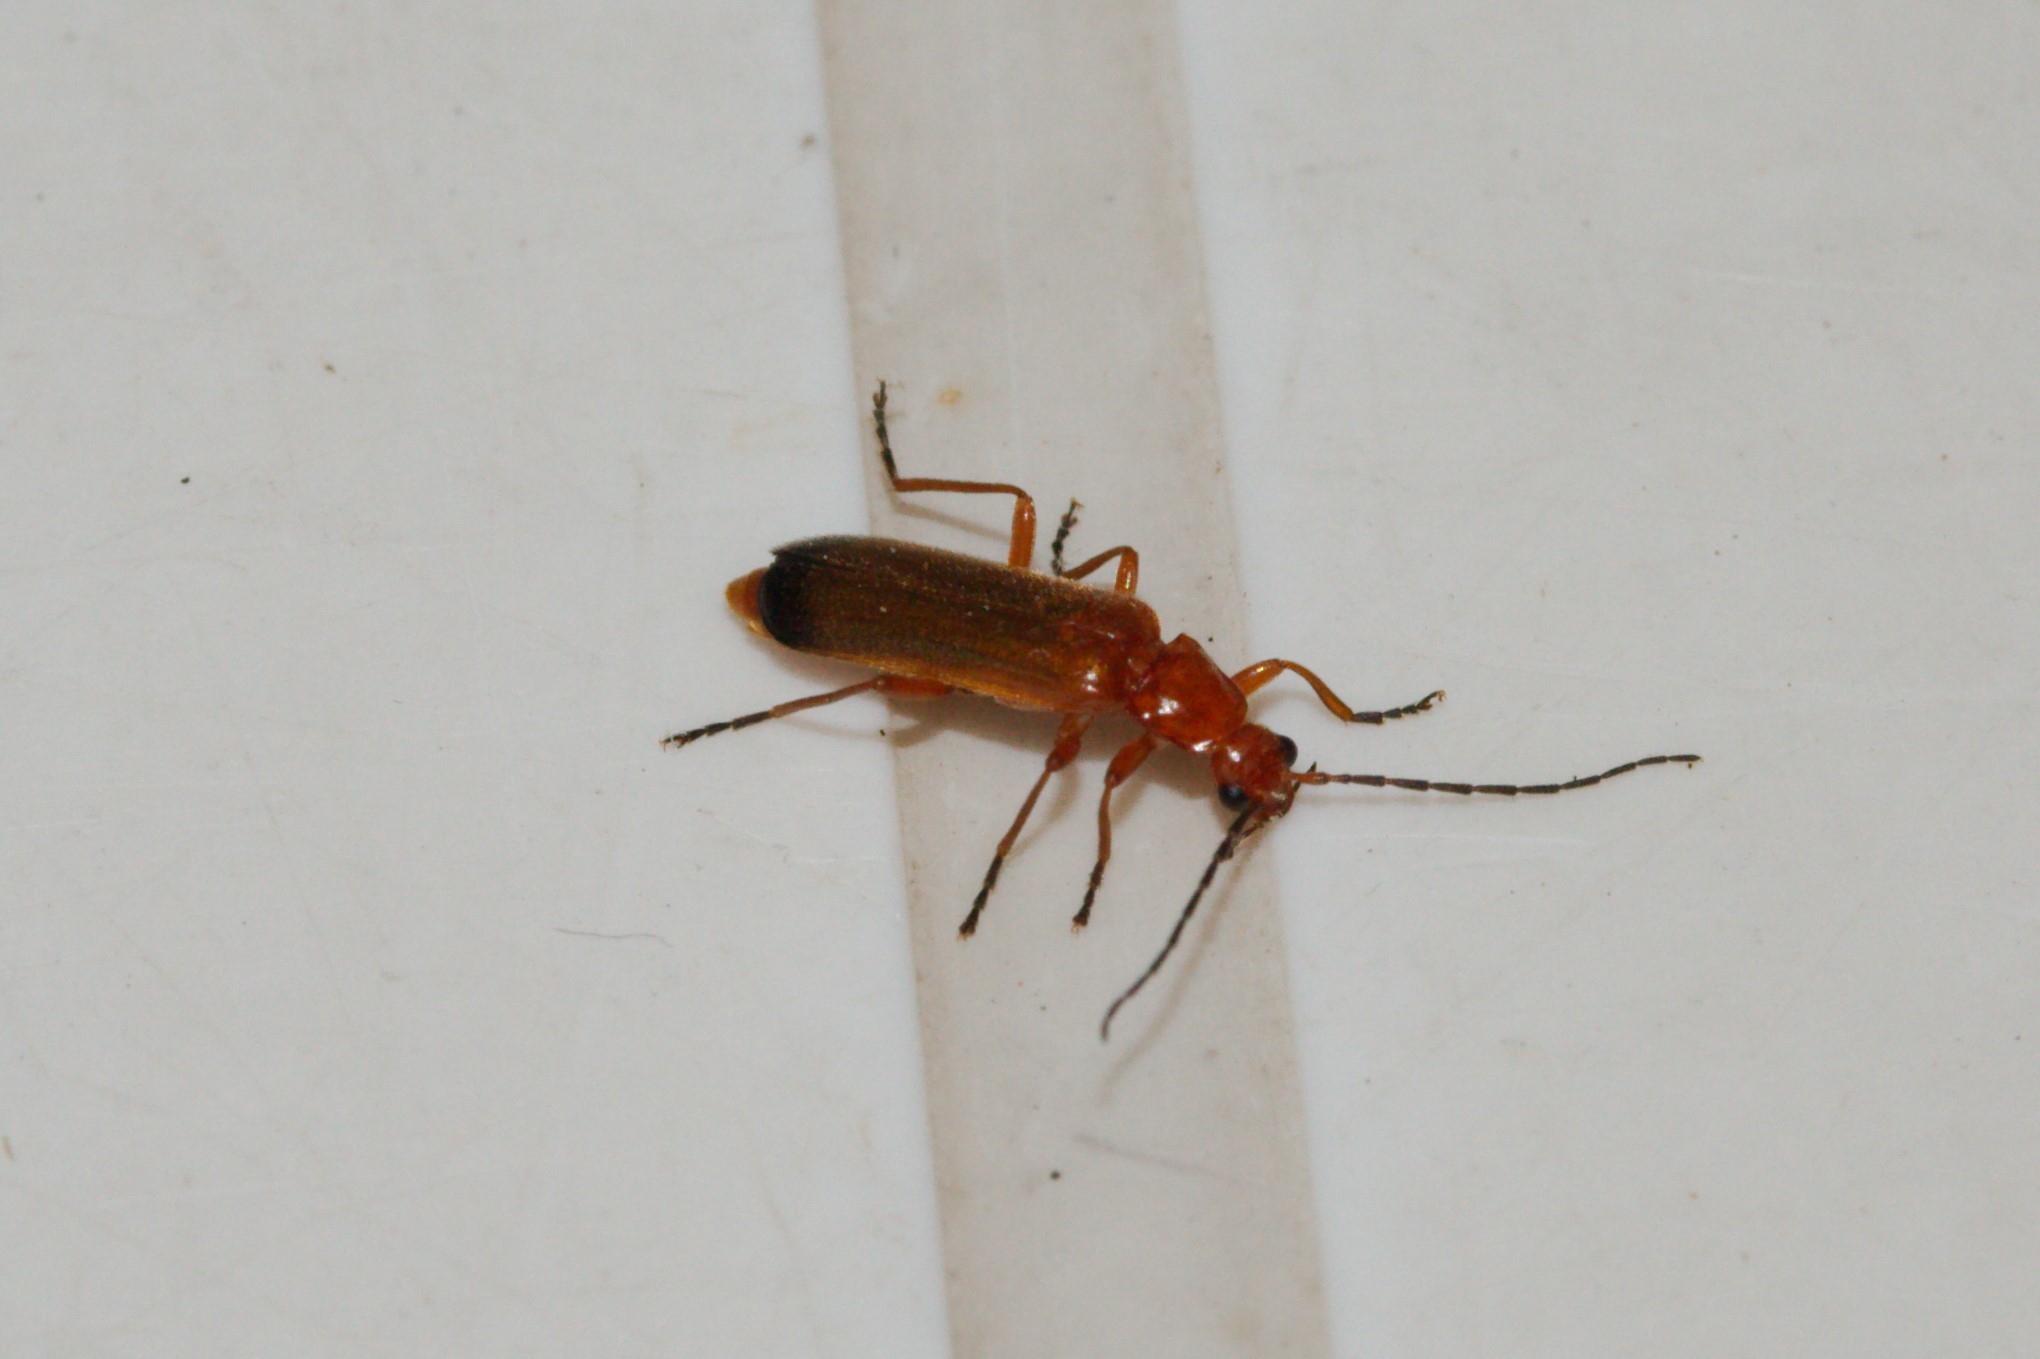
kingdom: Animalia
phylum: Arthropoda
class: Insecta
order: Coleoptera
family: Cantharidae
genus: Rhagonycha
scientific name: Rhagonycha fulva
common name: Common red soldier beetle
